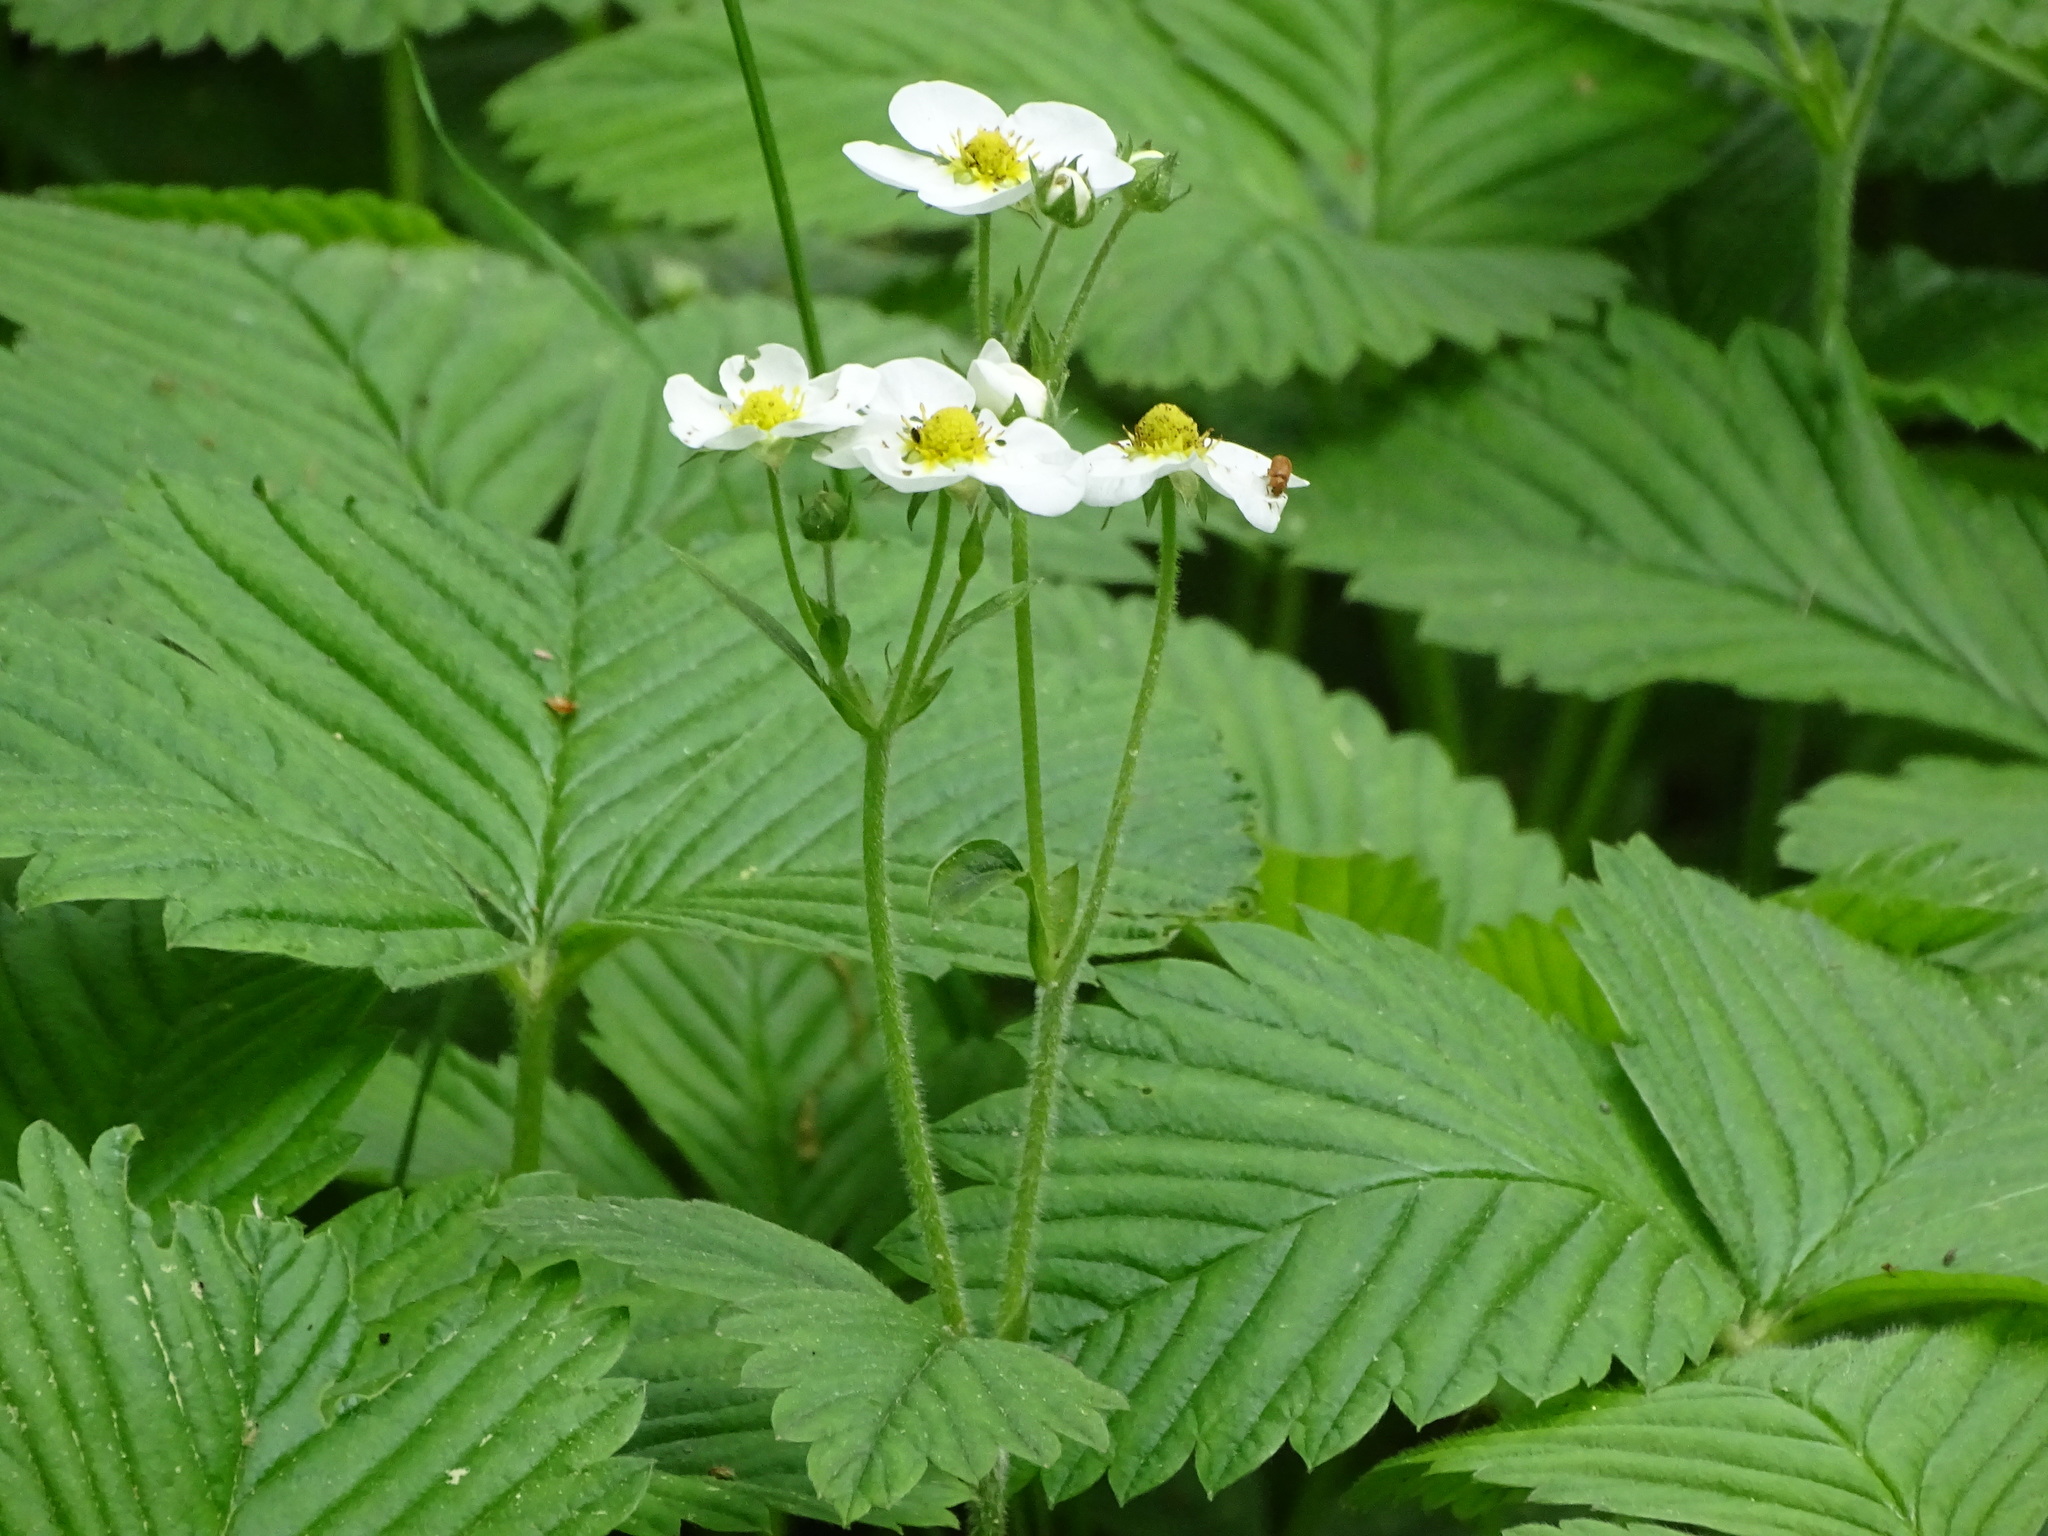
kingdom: Plantae
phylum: Tracheophyta
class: Magnoliopsida
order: Rosales
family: Rosaceae
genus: Fragaria
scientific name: Fragaria moschata
